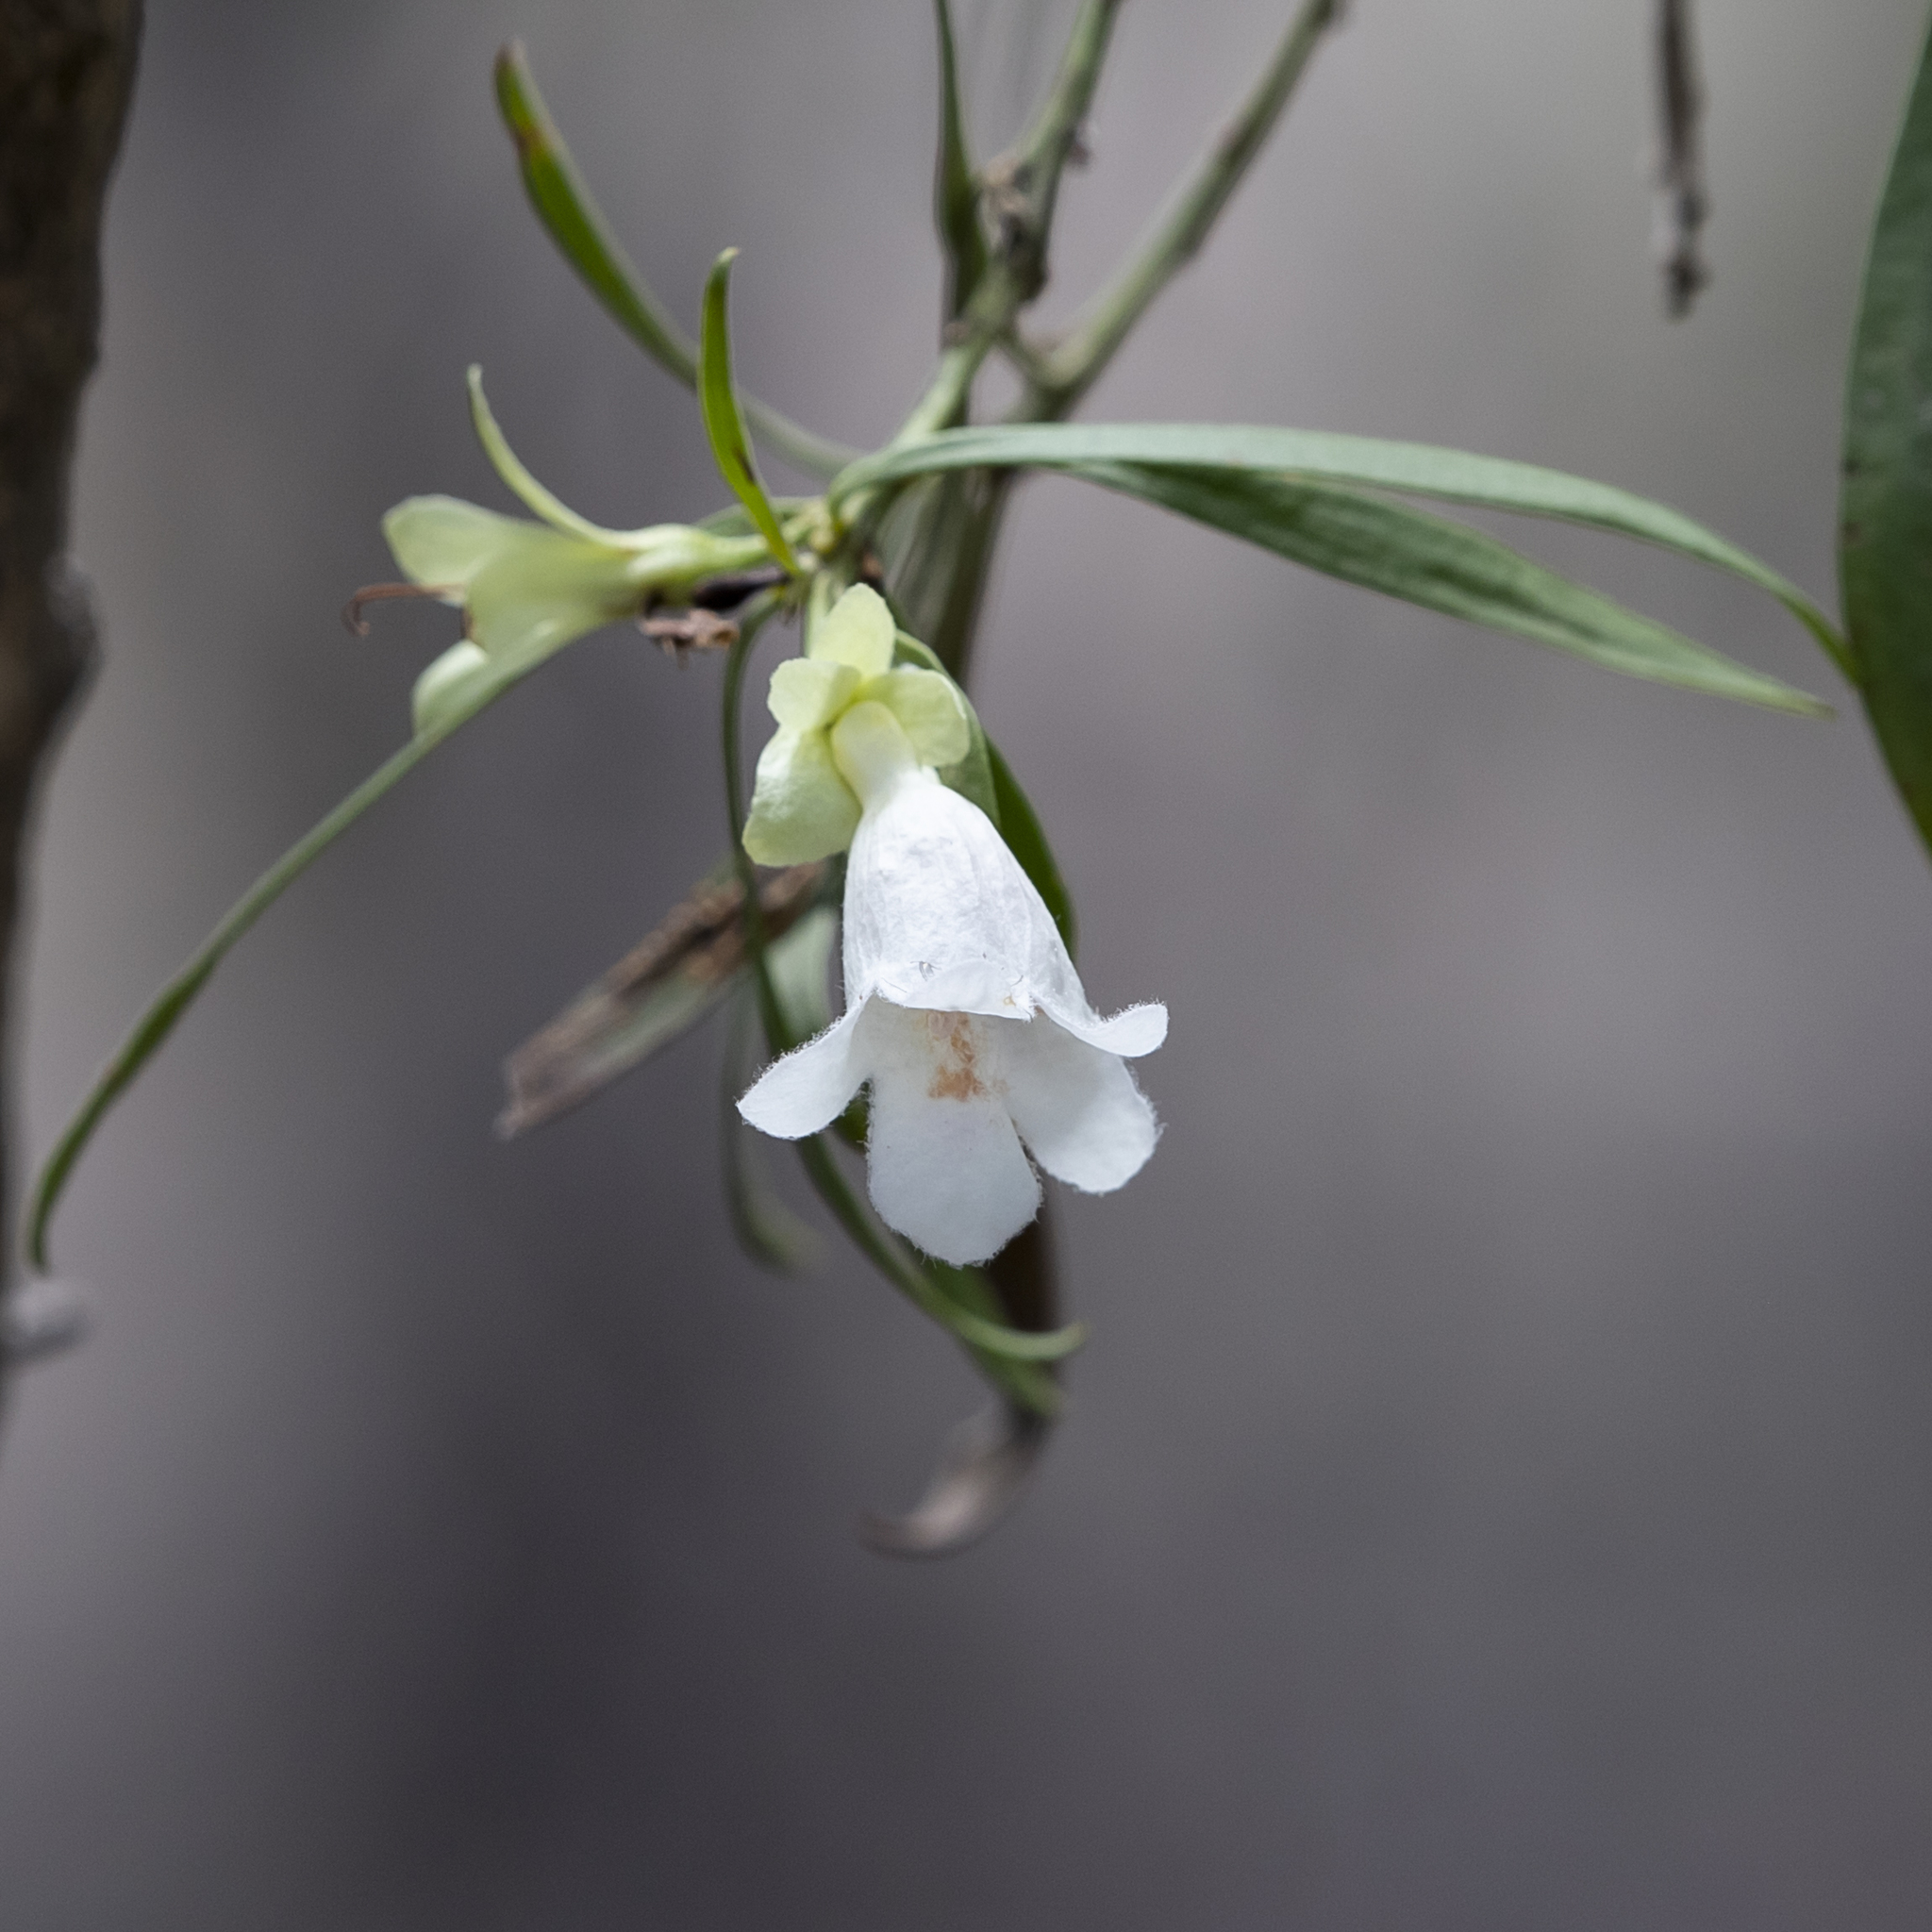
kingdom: Plantae
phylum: Tracheophyta
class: Magnoliopsida
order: Lamiales
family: Scrophulariaceae
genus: Eremophila
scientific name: Eremophila mitchellii
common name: Bastard-sandalwood
